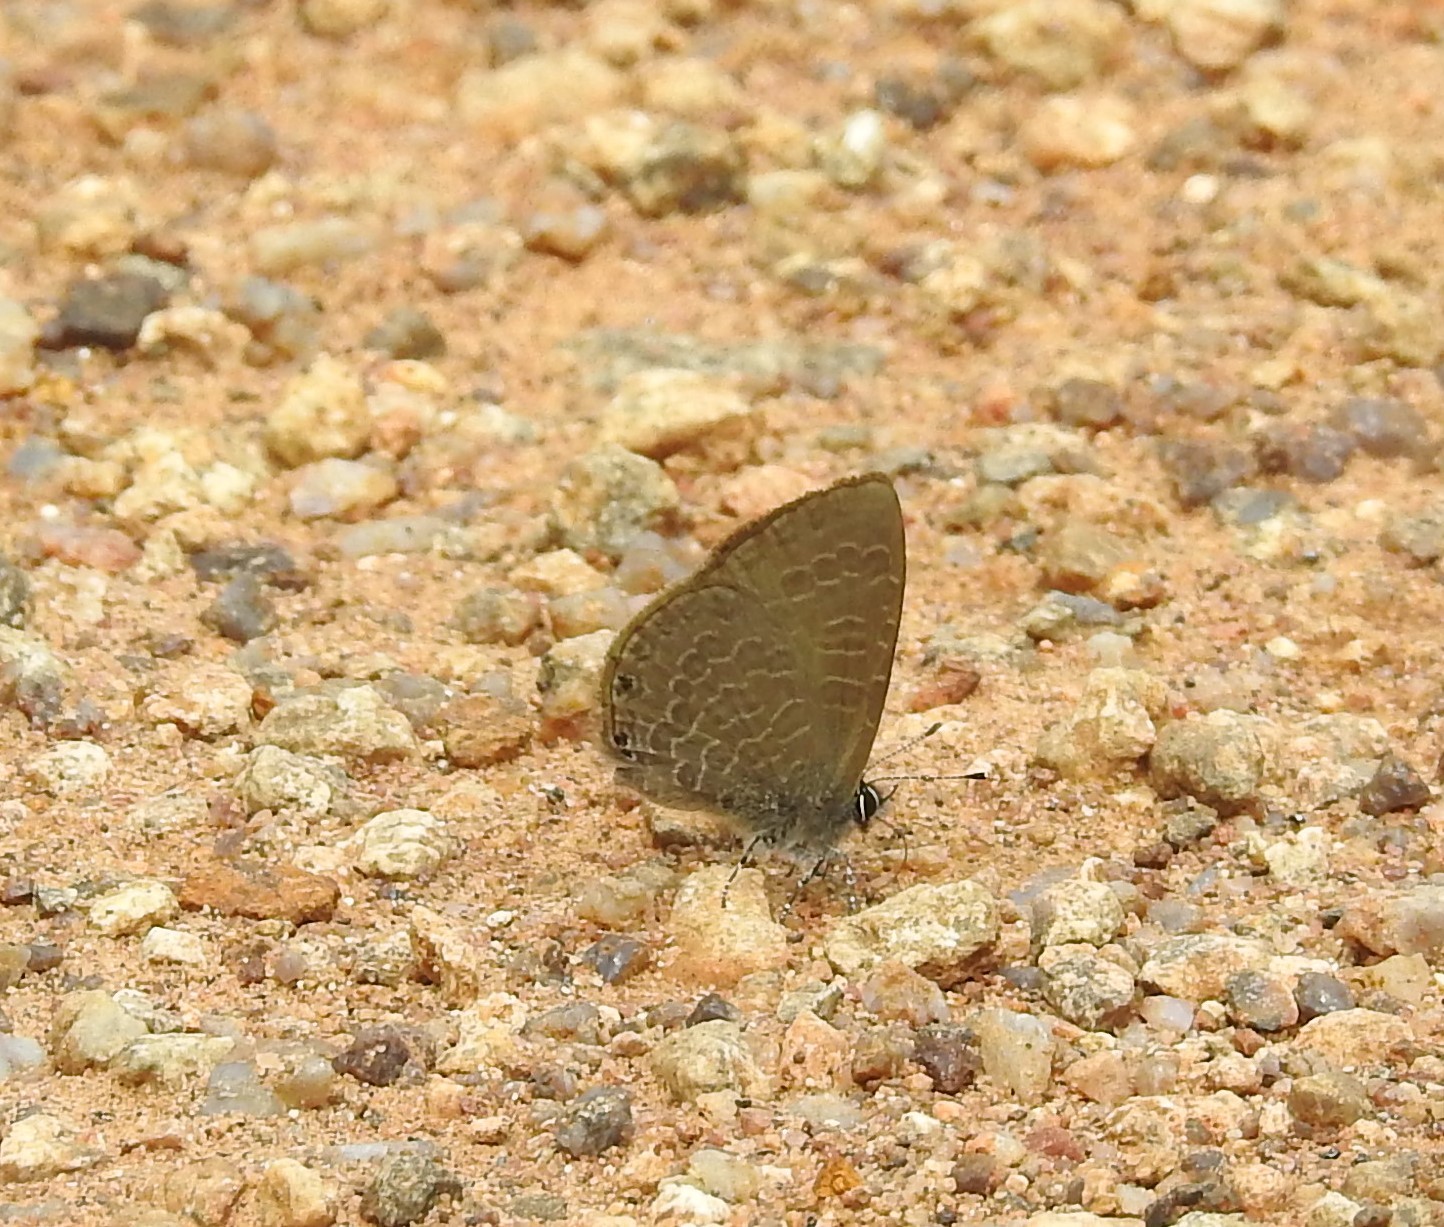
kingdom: Animalia
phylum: Arthropoda
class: Insecta
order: Lepidoptera
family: Lycaenidae
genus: Petrelaea
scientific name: Petrelaea dana
